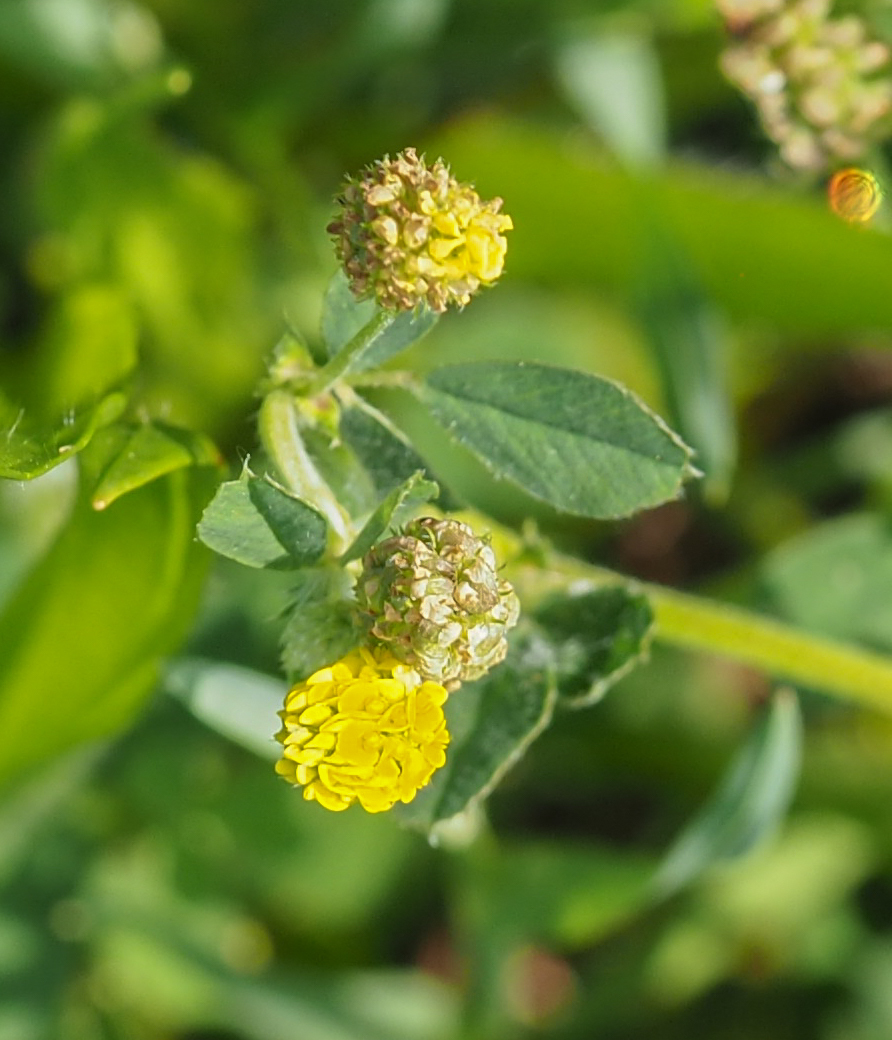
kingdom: Plantae
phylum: Tracheophyta
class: Magnoliopsida
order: Fabales
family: Fabaceae
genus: Medicago
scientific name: Medicago lupulina
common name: Black medick
